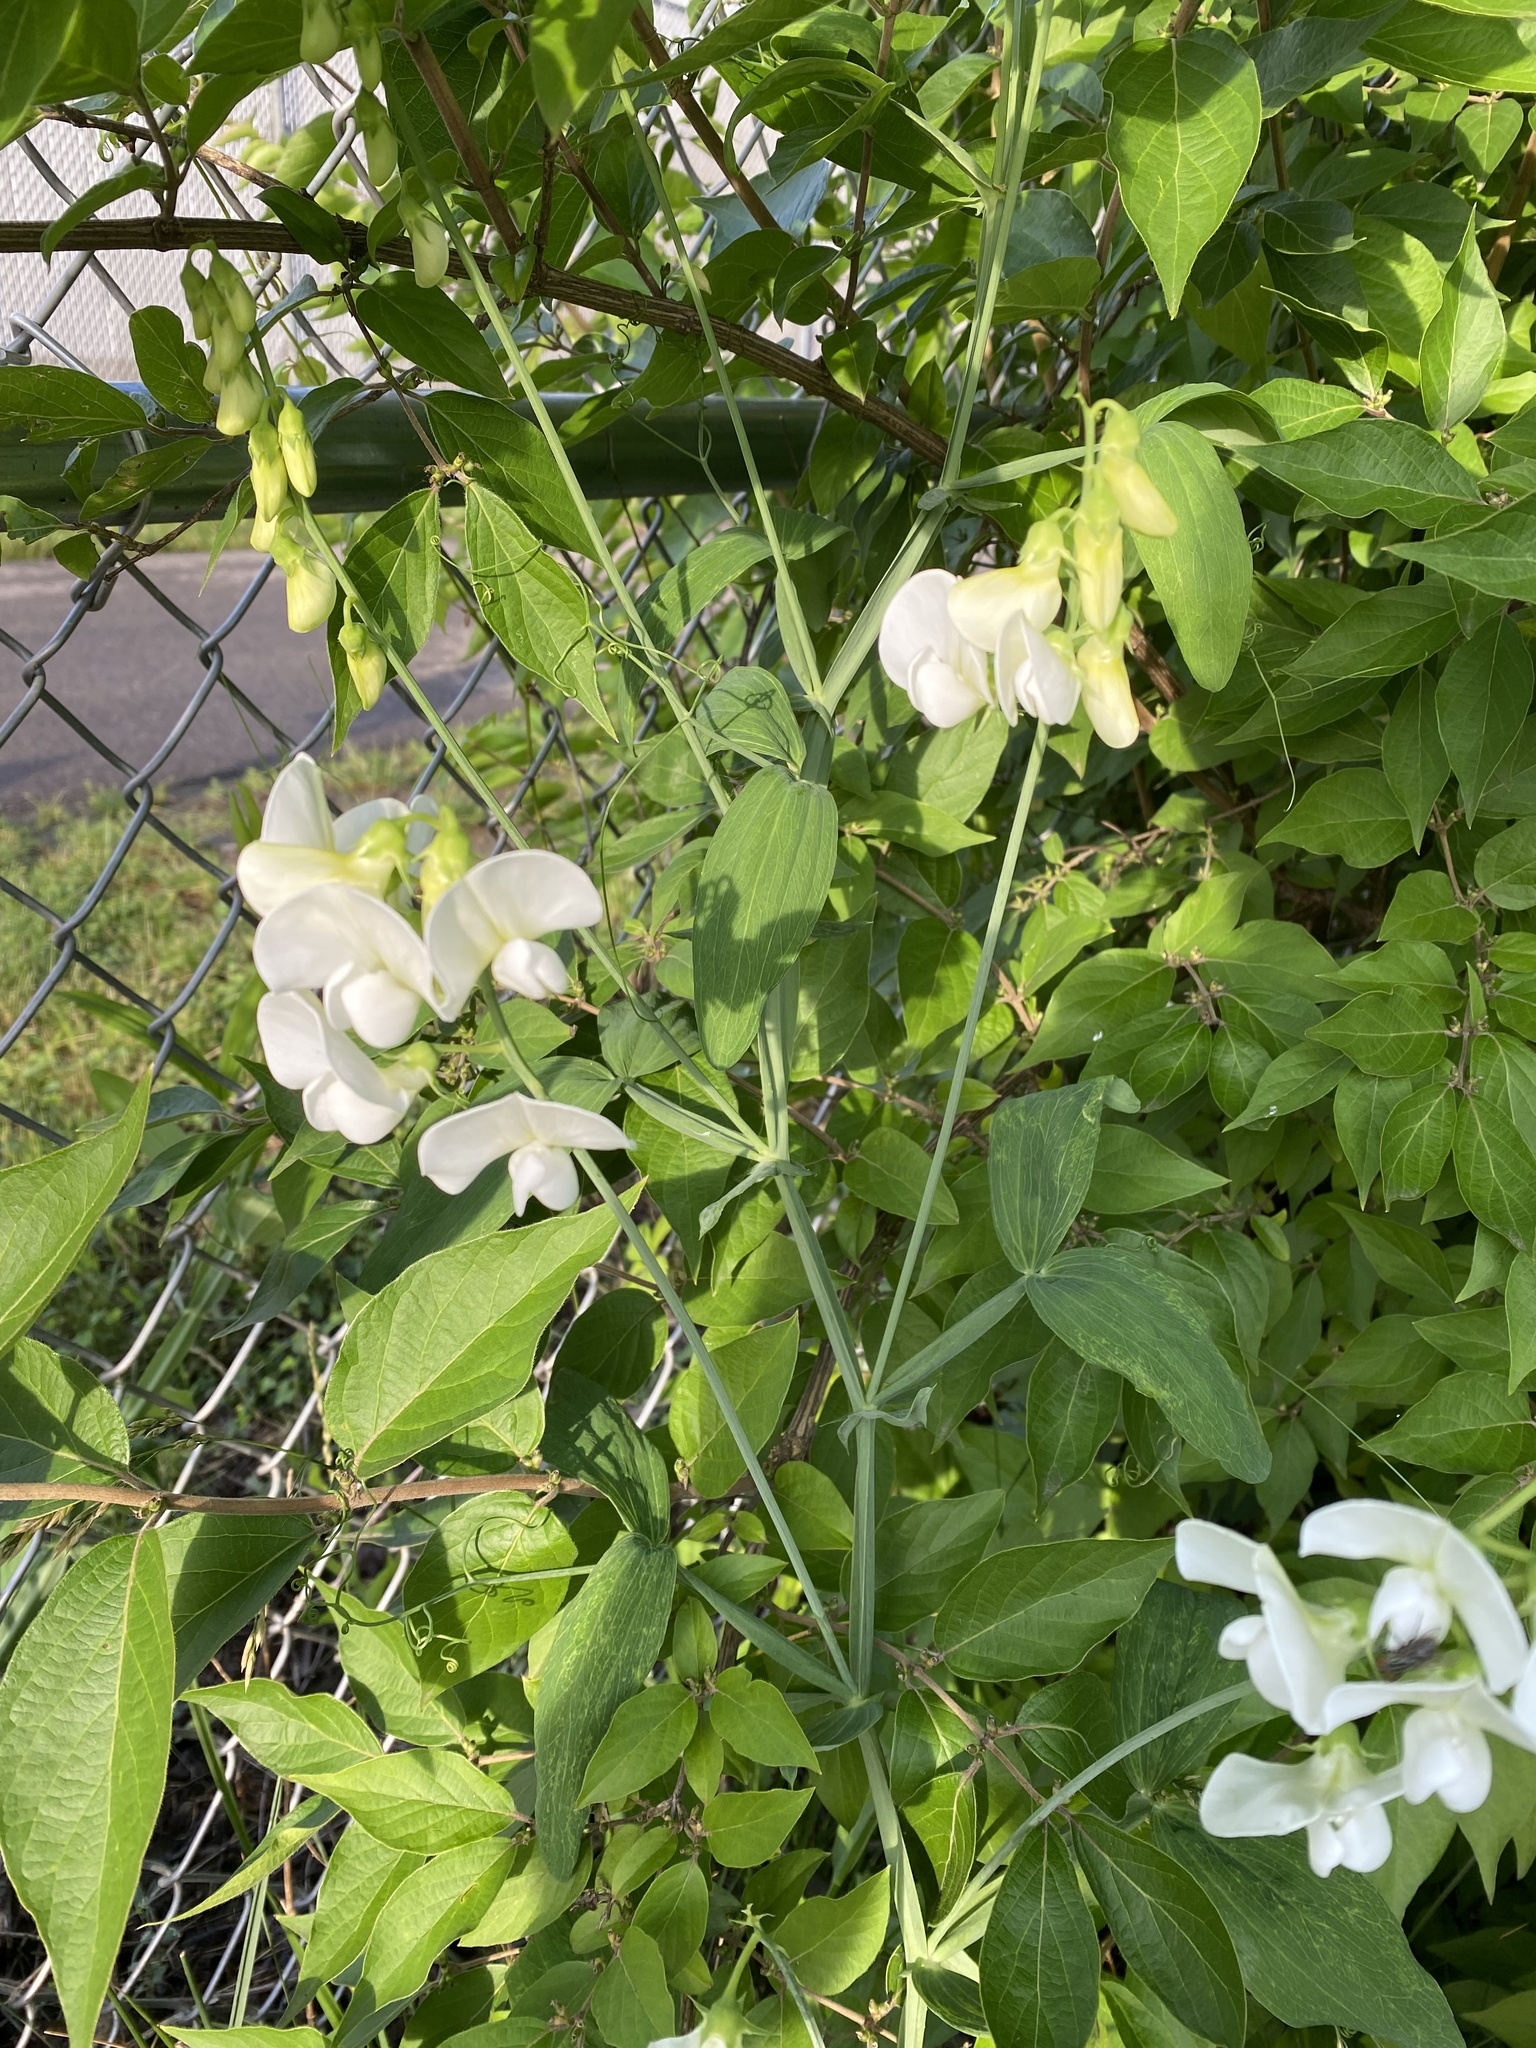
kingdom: Plantae
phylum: Tracheophyta
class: Magnoliopsida
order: Fabales
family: Fabaceae
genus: Lathyrus
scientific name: Lathyrus latifolius
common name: Perennial pea
